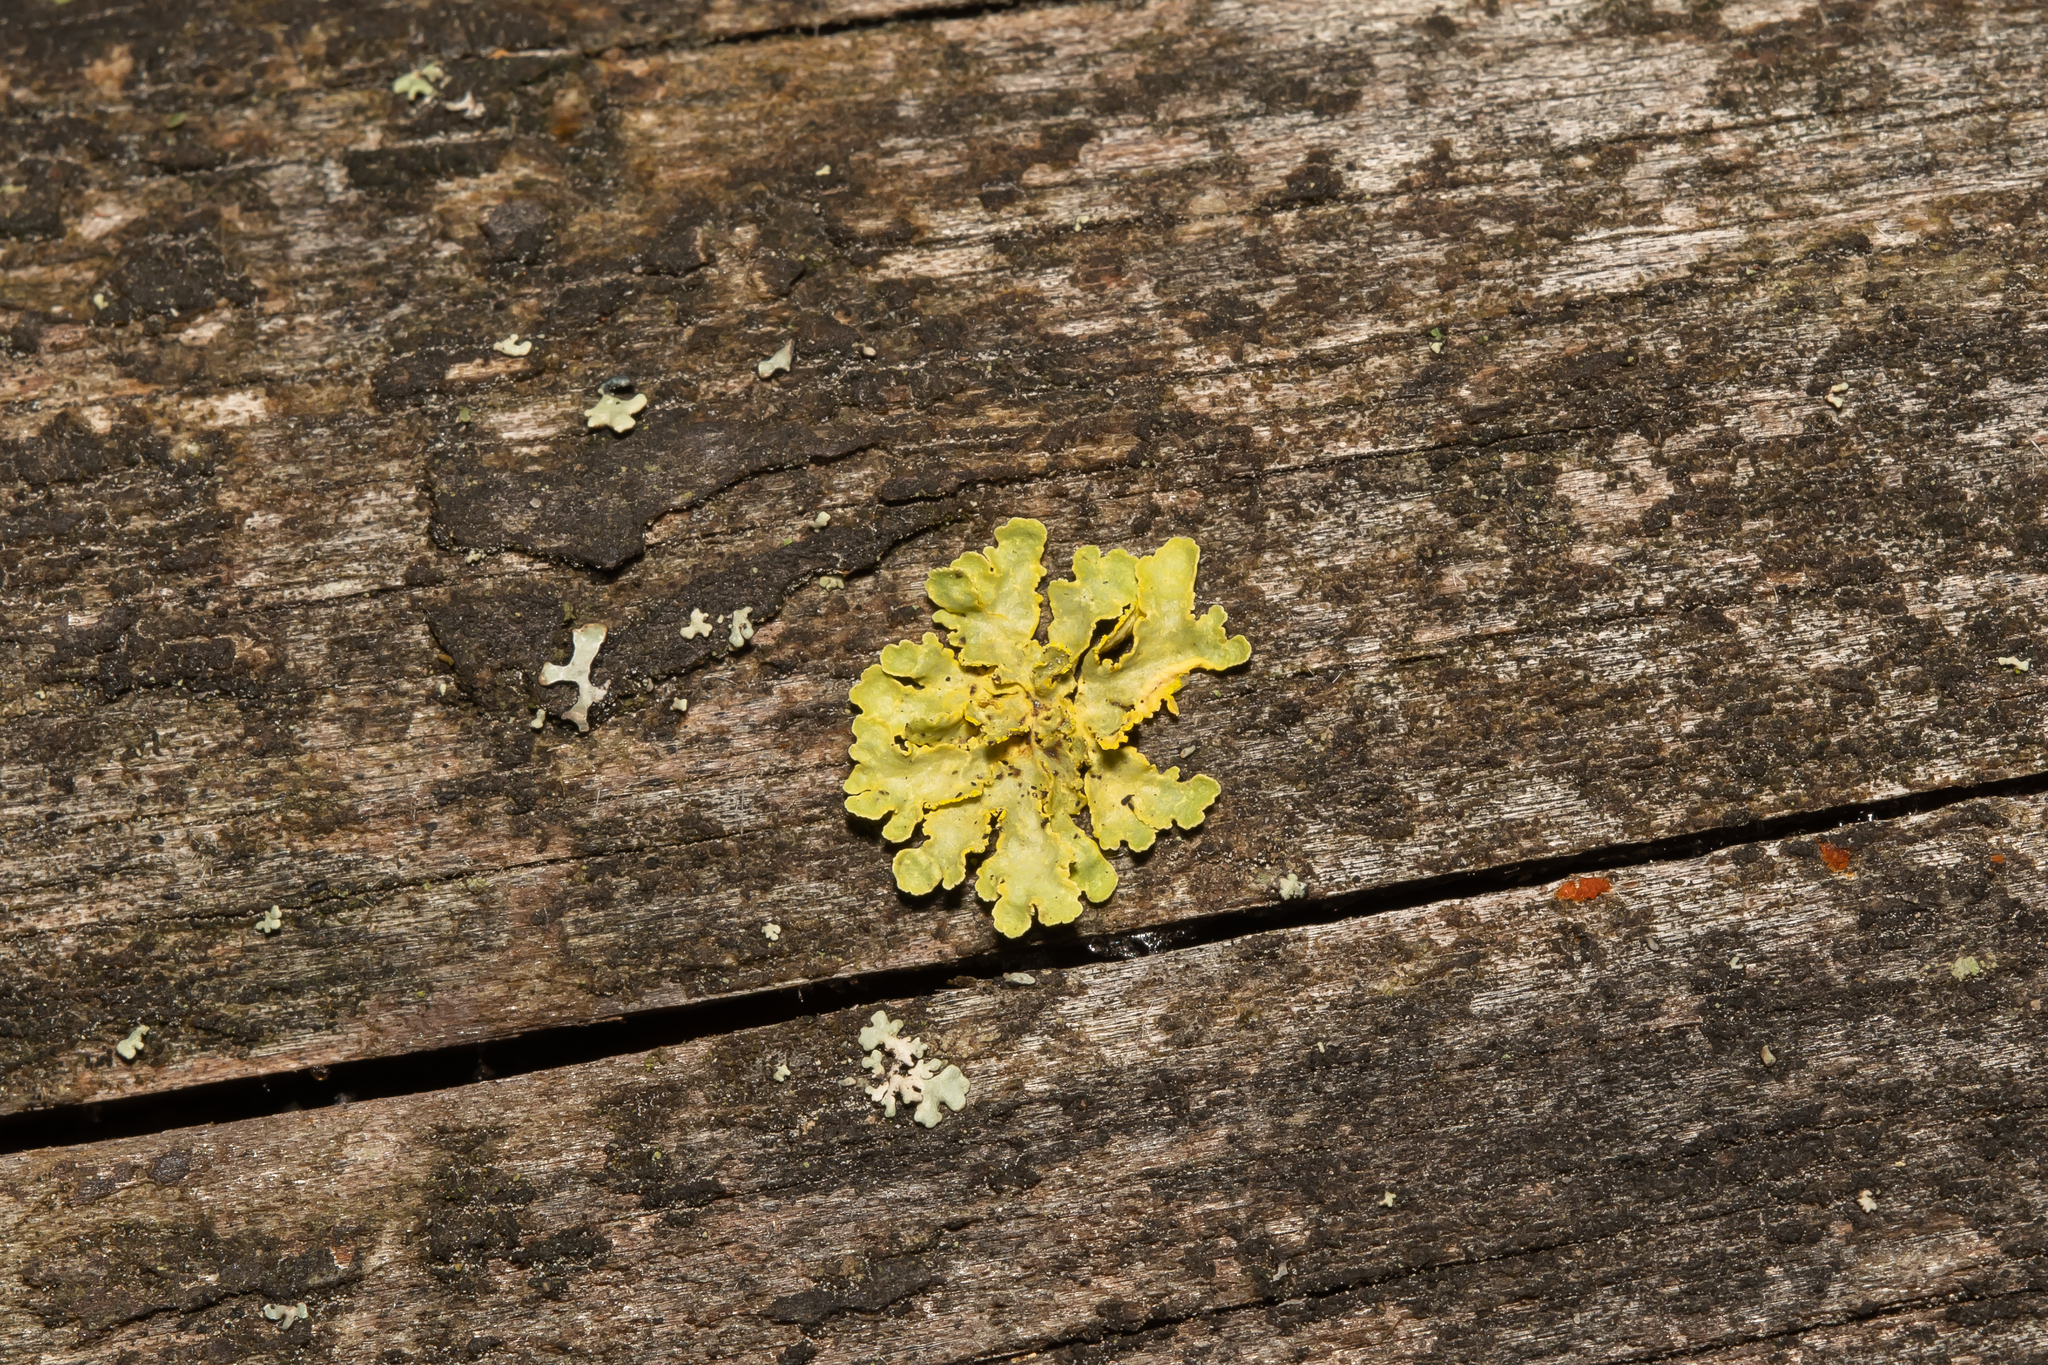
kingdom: Fungi
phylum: Ascomycota
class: Lecanoromycetes
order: Lecanorales
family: Parmeliaceae
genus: Vulpicida
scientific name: Vulpicida pinastri
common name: Powdered sunshine lichen
